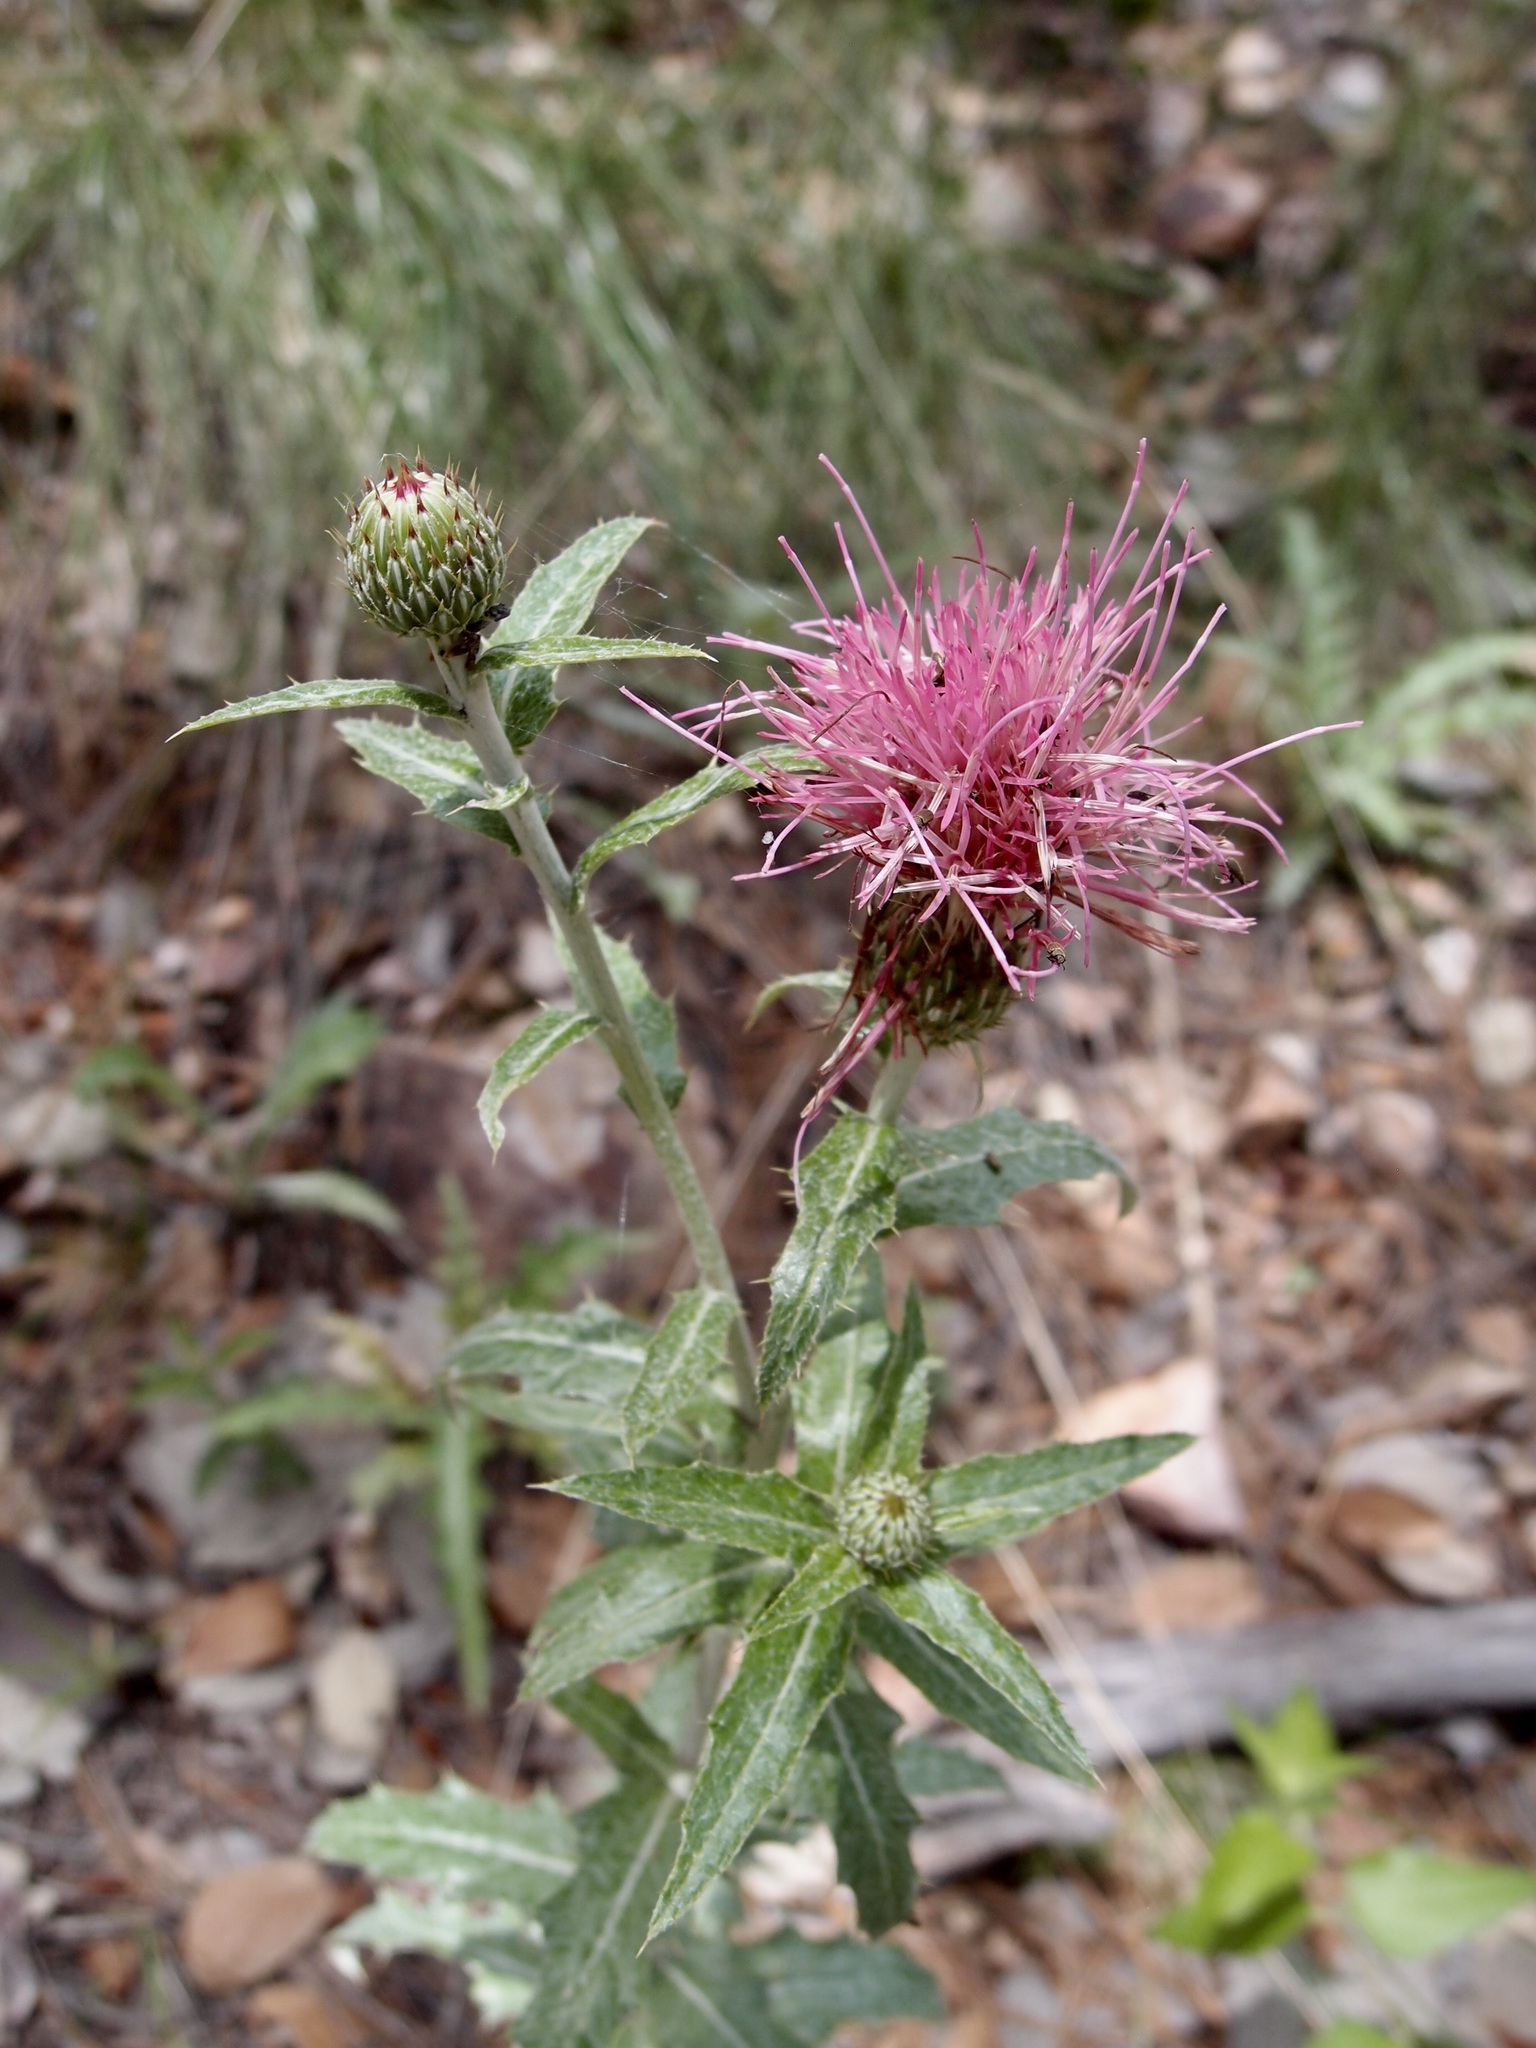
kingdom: Plantae
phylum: Tracheophyta
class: Magnoliopsida
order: Asterales
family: Asteraceae
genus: Cirsium
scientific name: Cirsium wheeleri
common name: Wheeler's thistle
